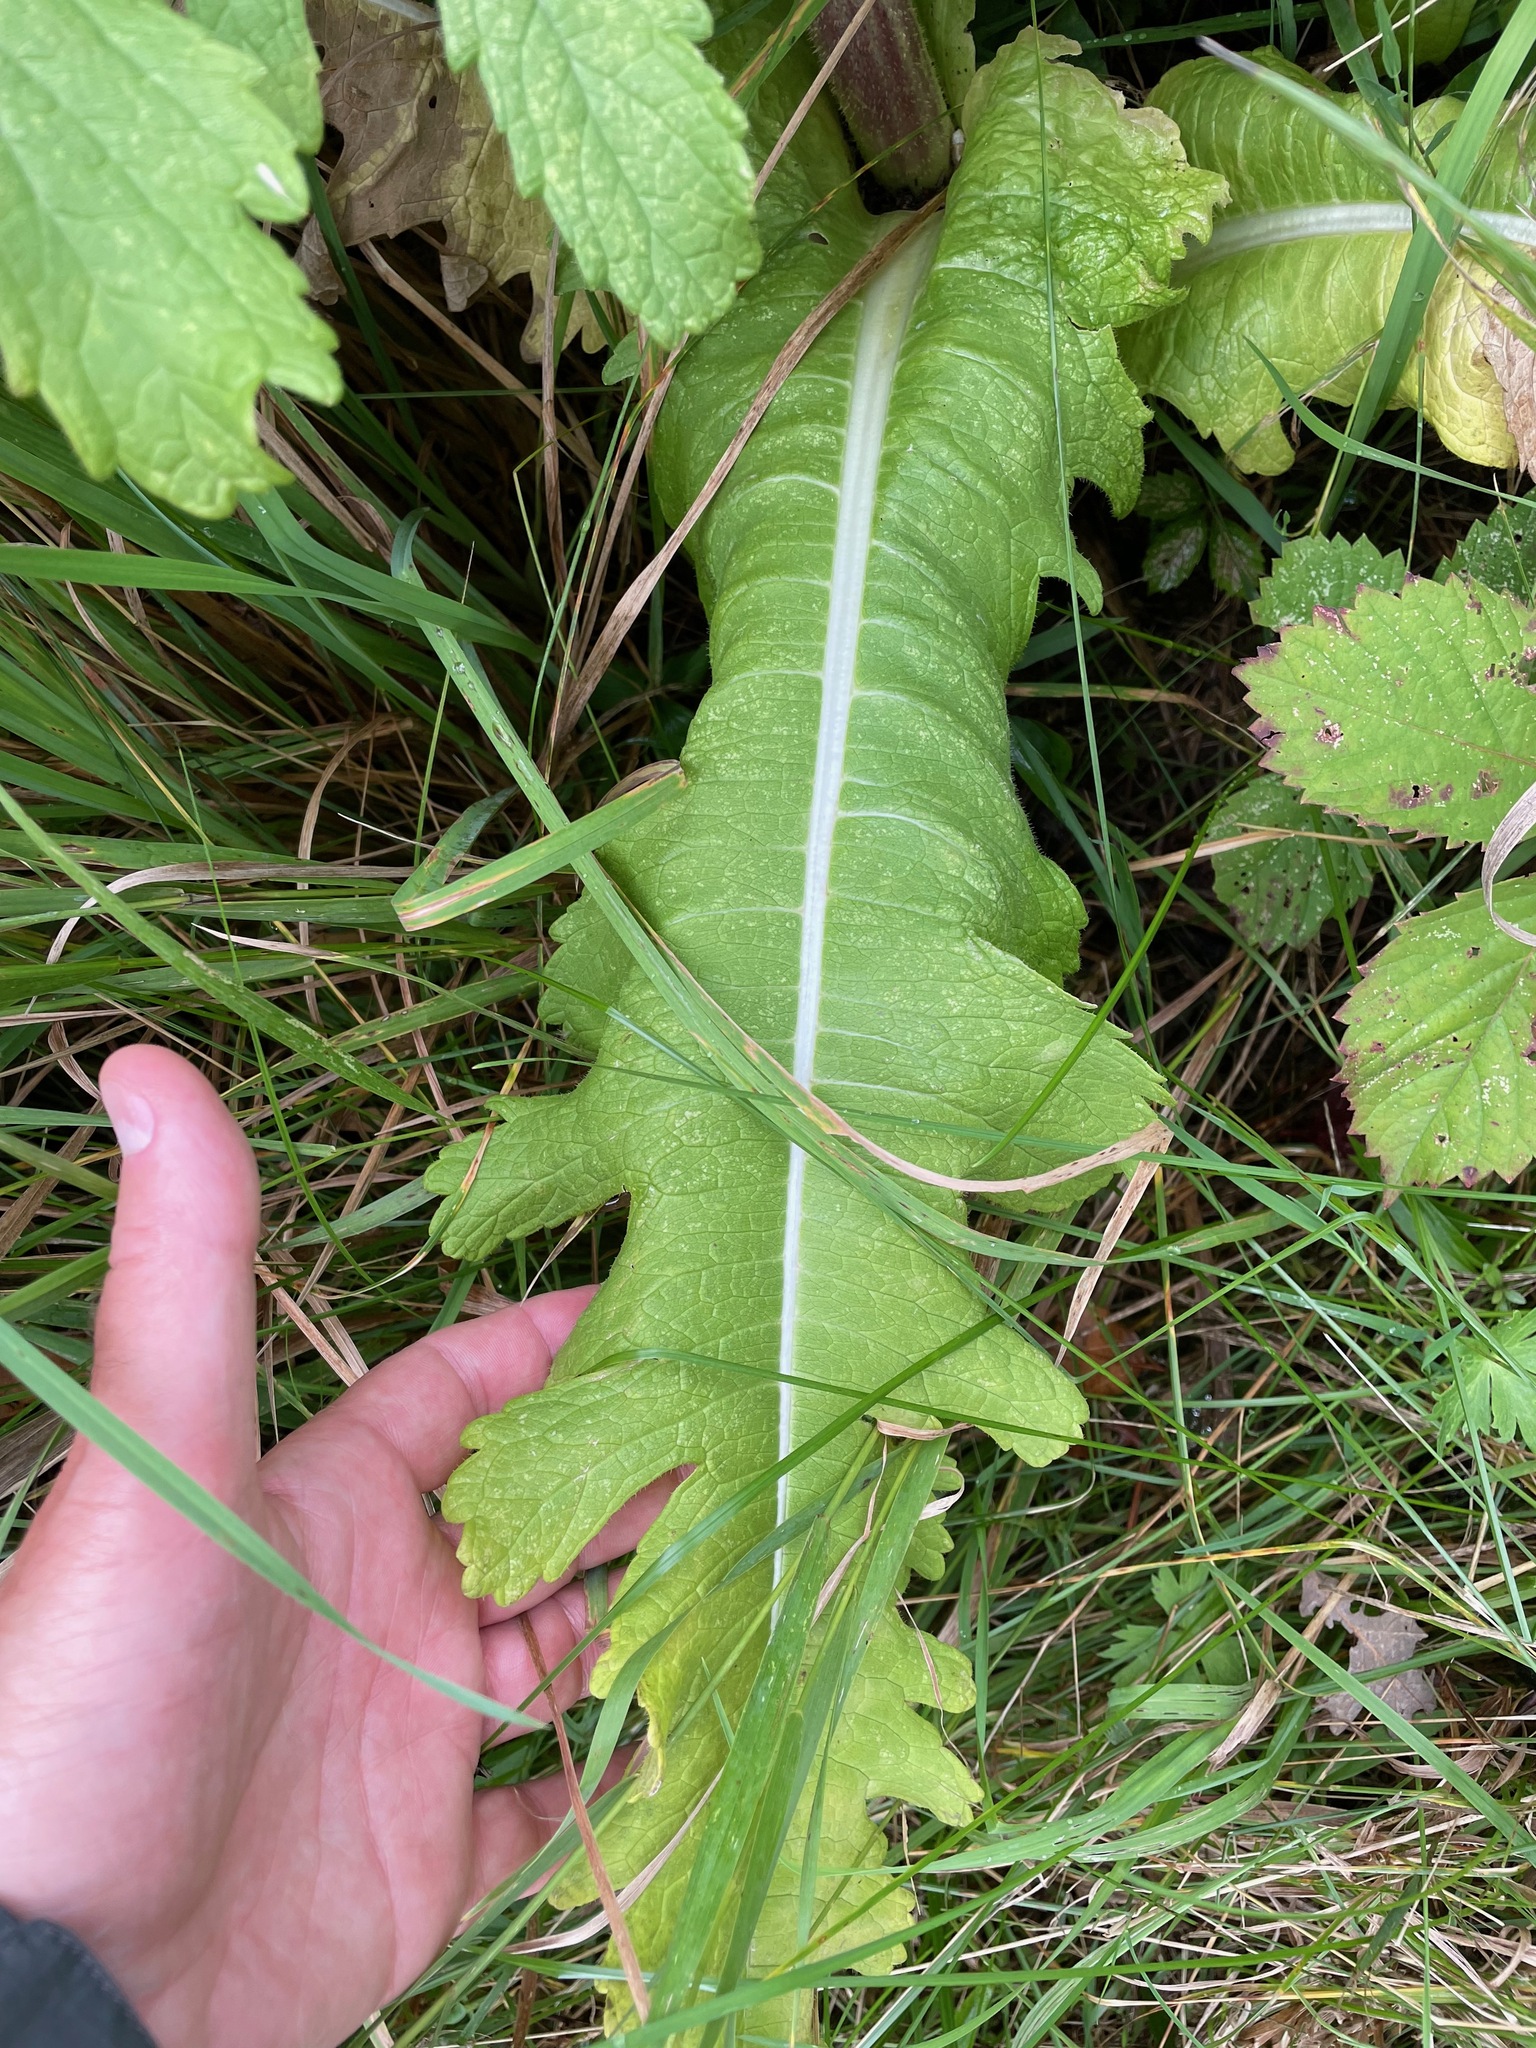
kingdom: Plantae
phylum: Tracheophyta
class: Magnoliopsida
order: Dipsacales
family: Caprifoliaceae
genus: Dipsacus
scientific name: Dipsacus laciniatus
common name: Cut-leaved teasel
